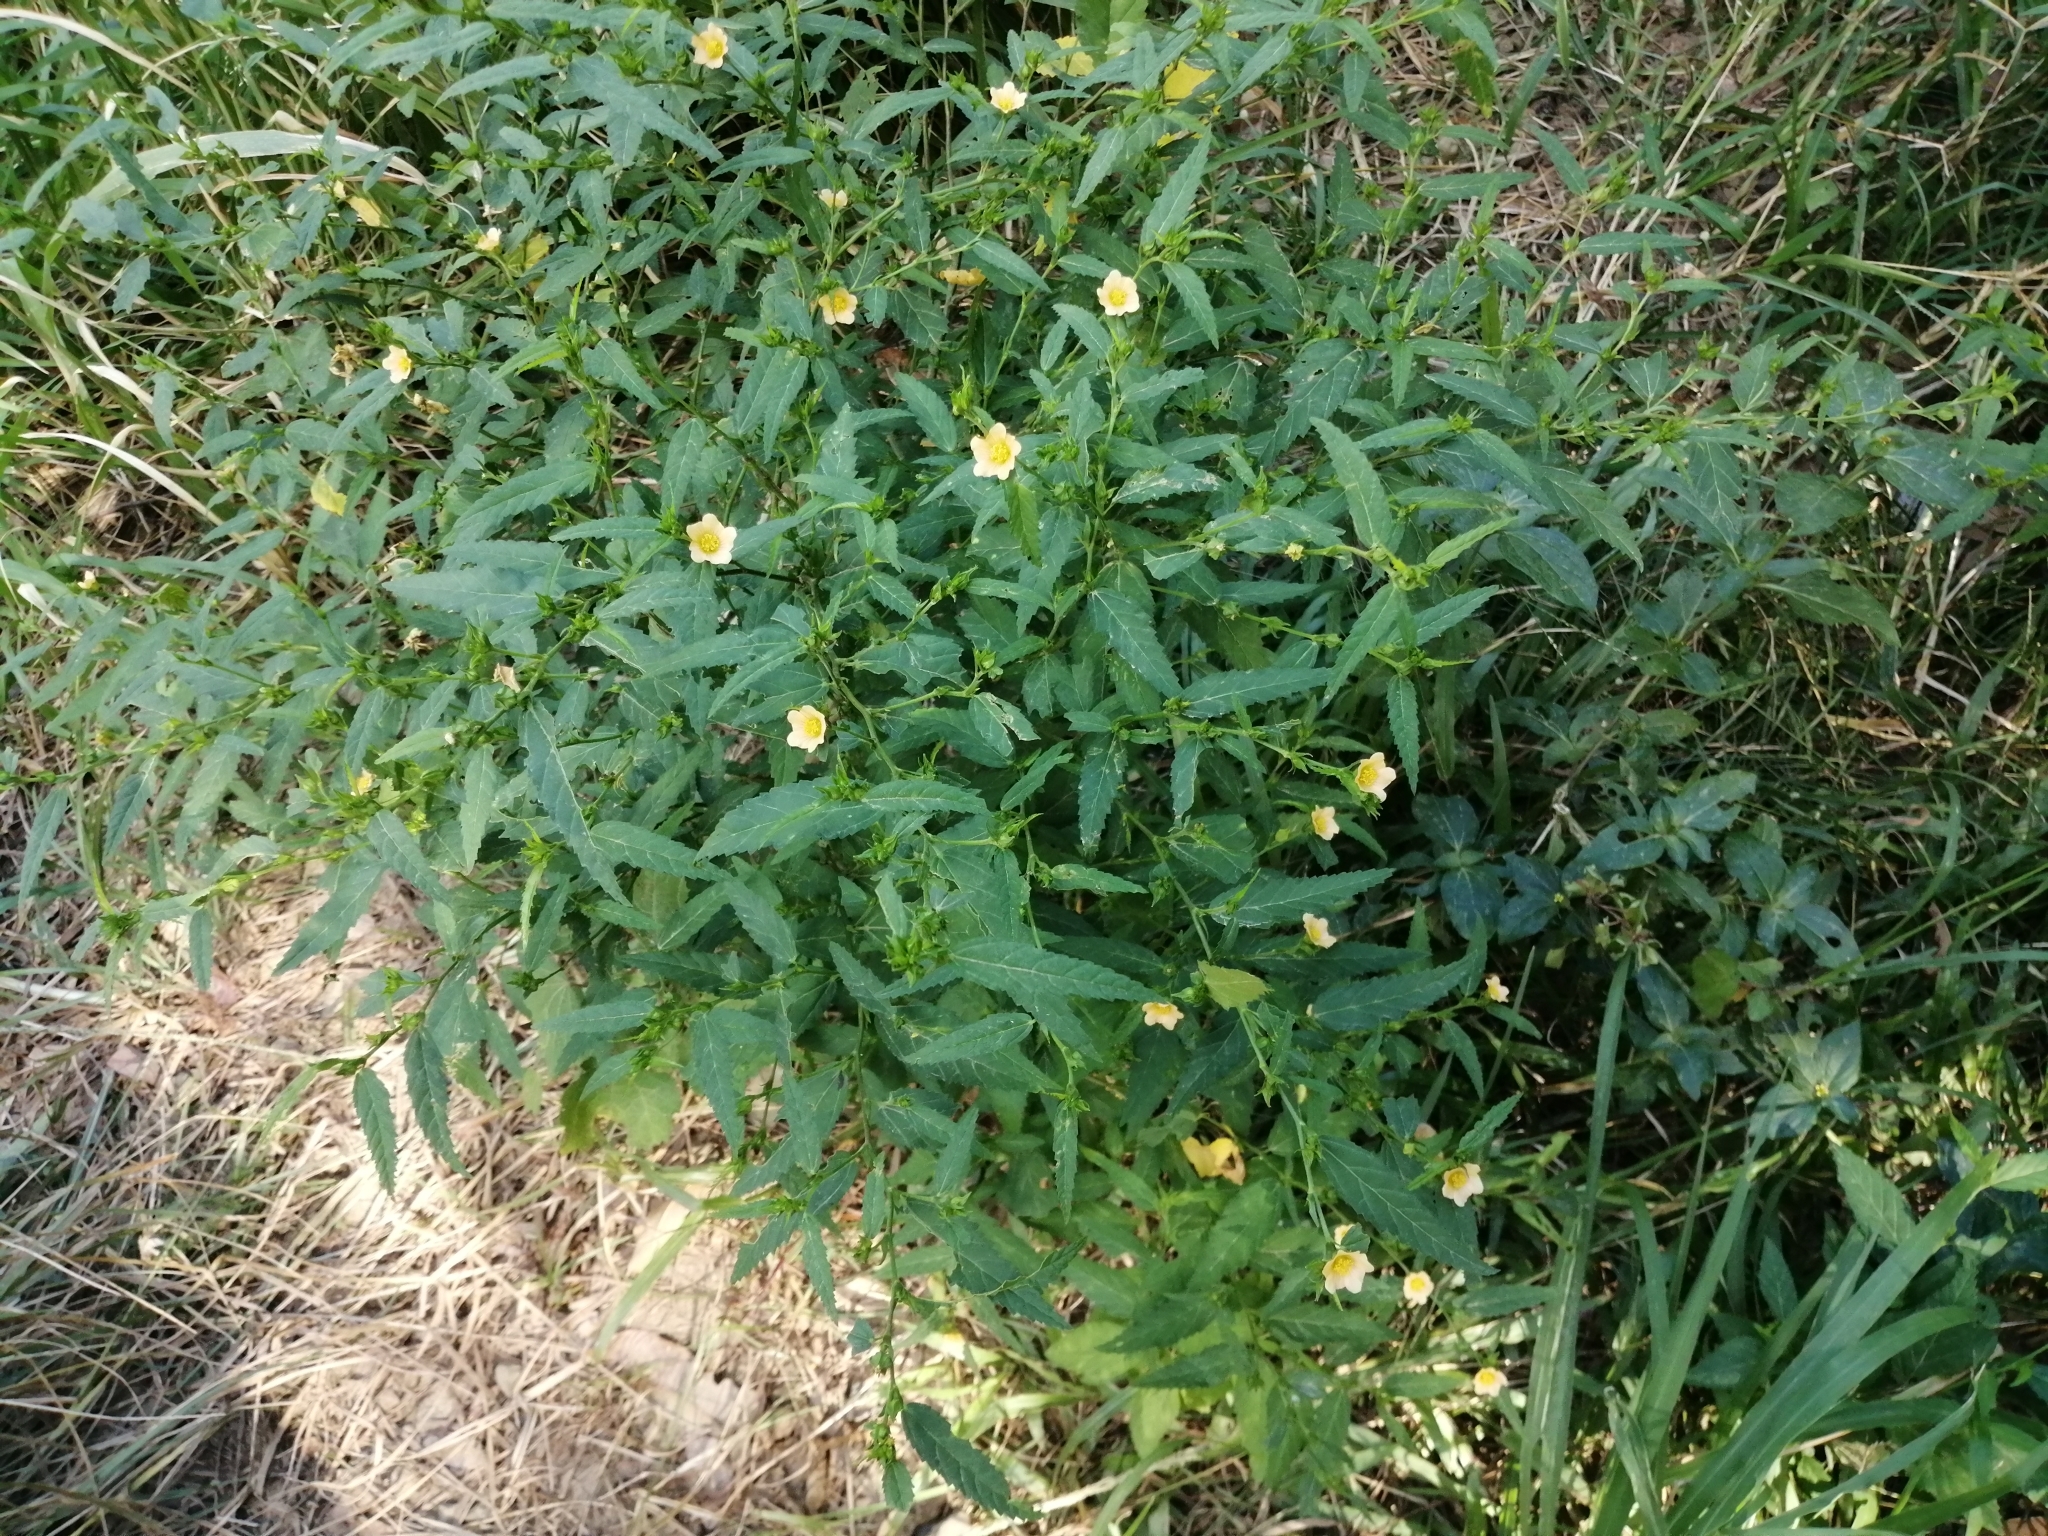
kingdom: Plantae
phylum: Tracheophyta
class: Magnoliopsida
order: Malvales
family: Malvaceae
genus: Sida
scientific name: Sida rhombifolia
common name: Queensland-hemp
